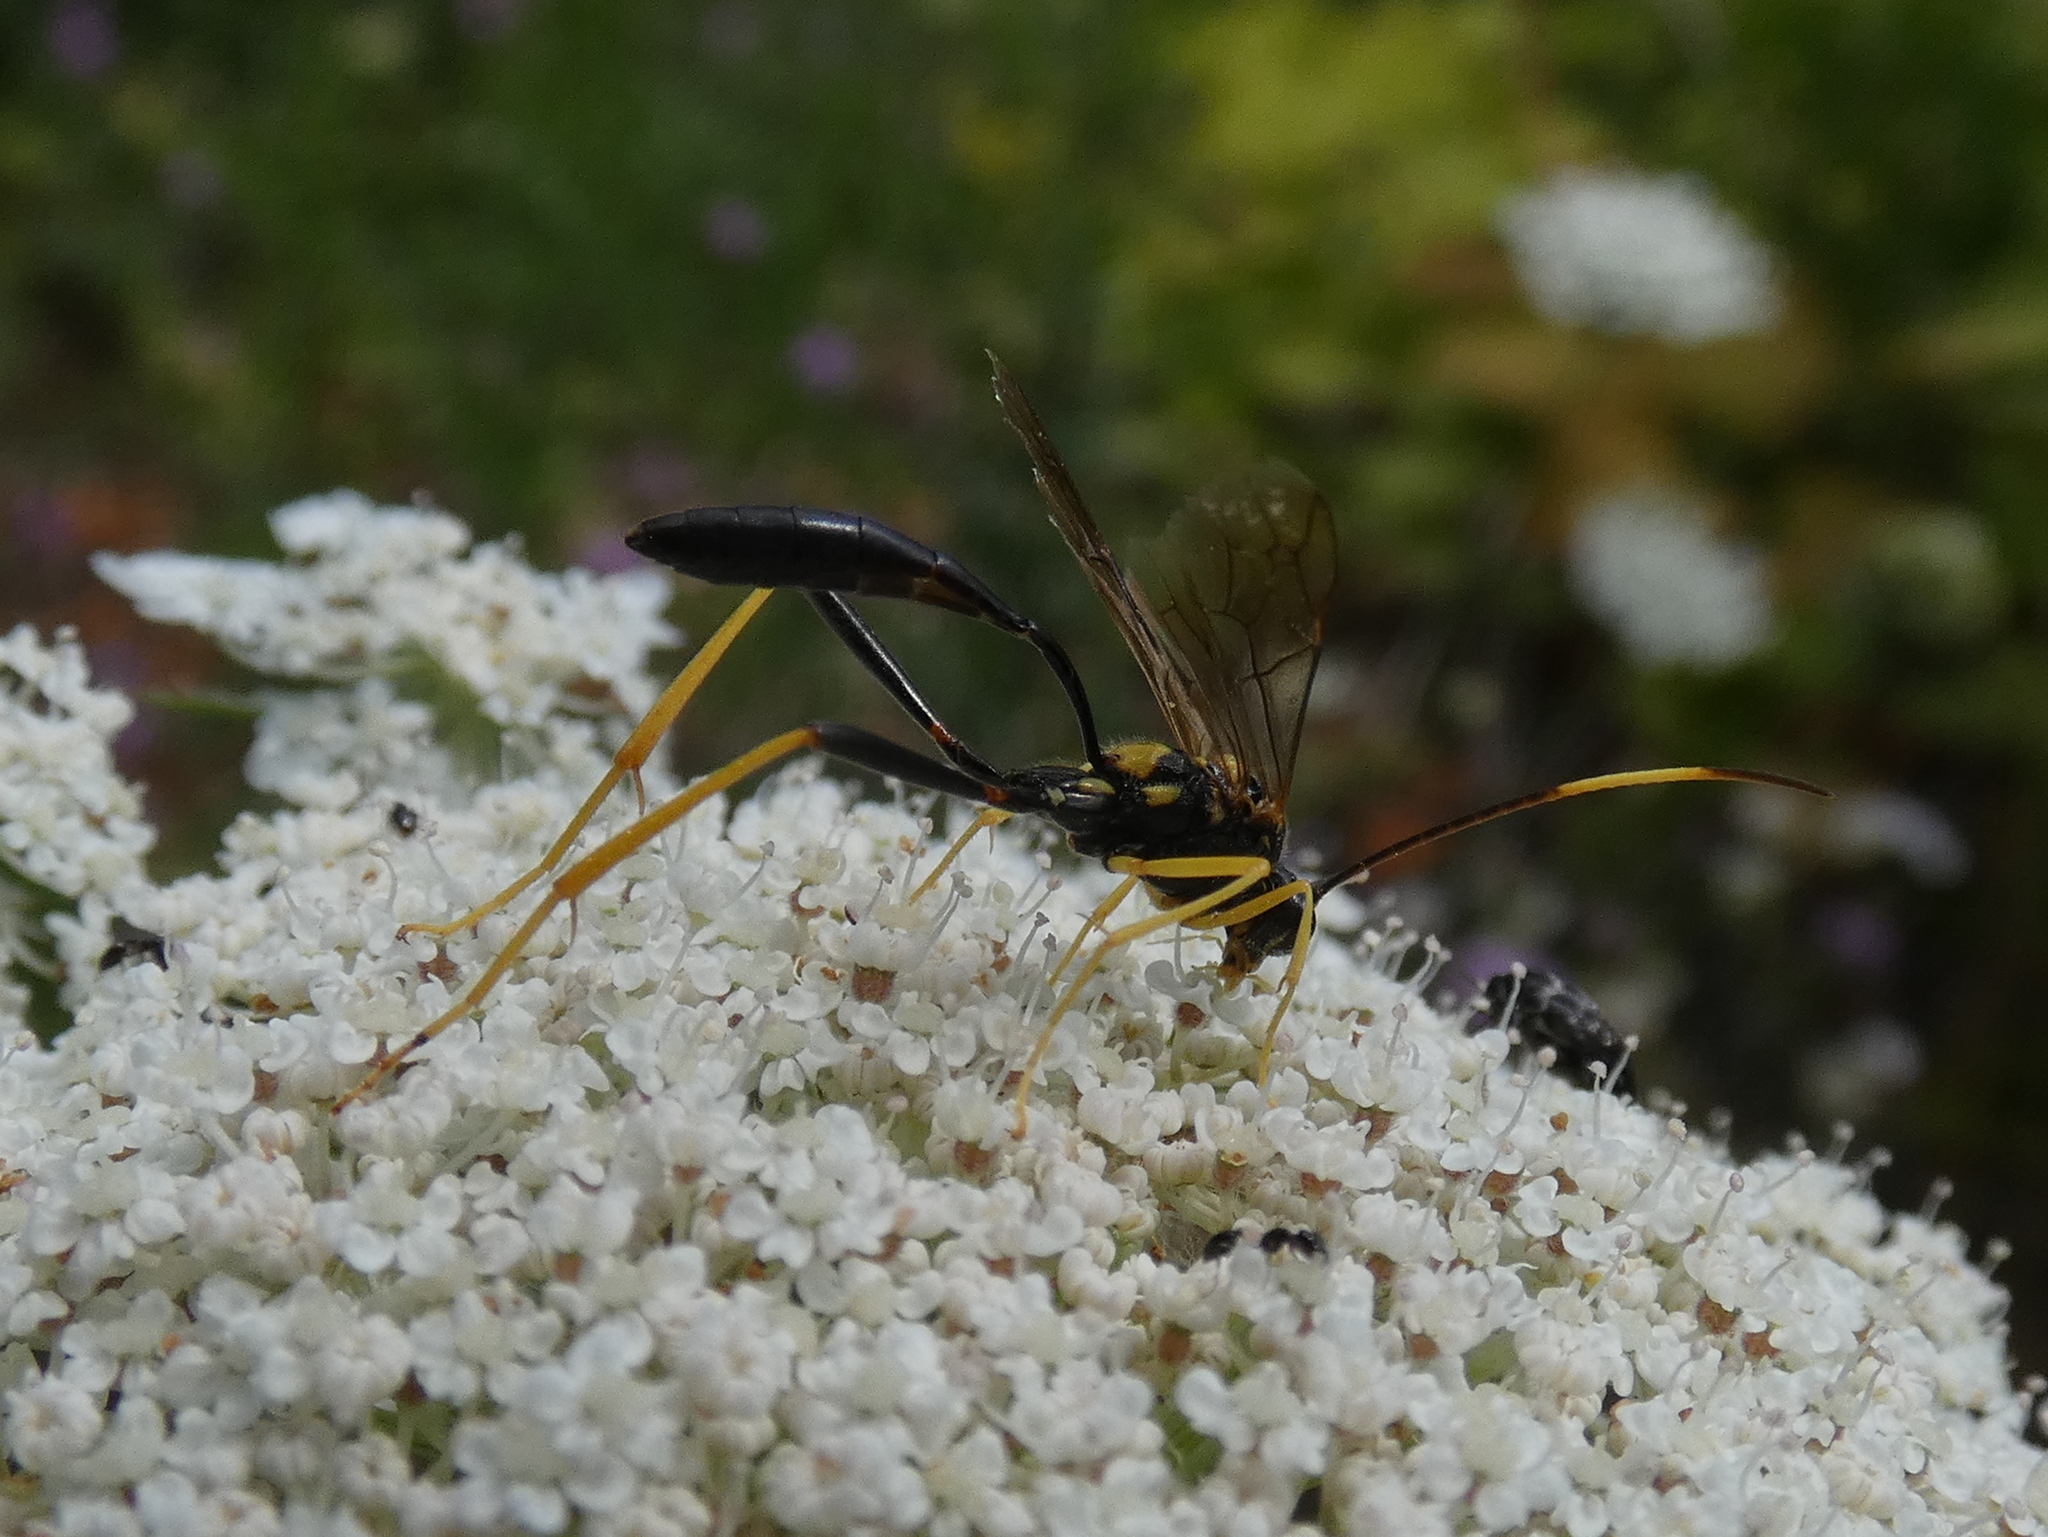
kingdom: Animalia
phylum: Arthropoda
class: Insecta
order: Hymenoptera
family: Ichneumonidae
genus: Acroricnus
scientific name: Acroricnus stylator
